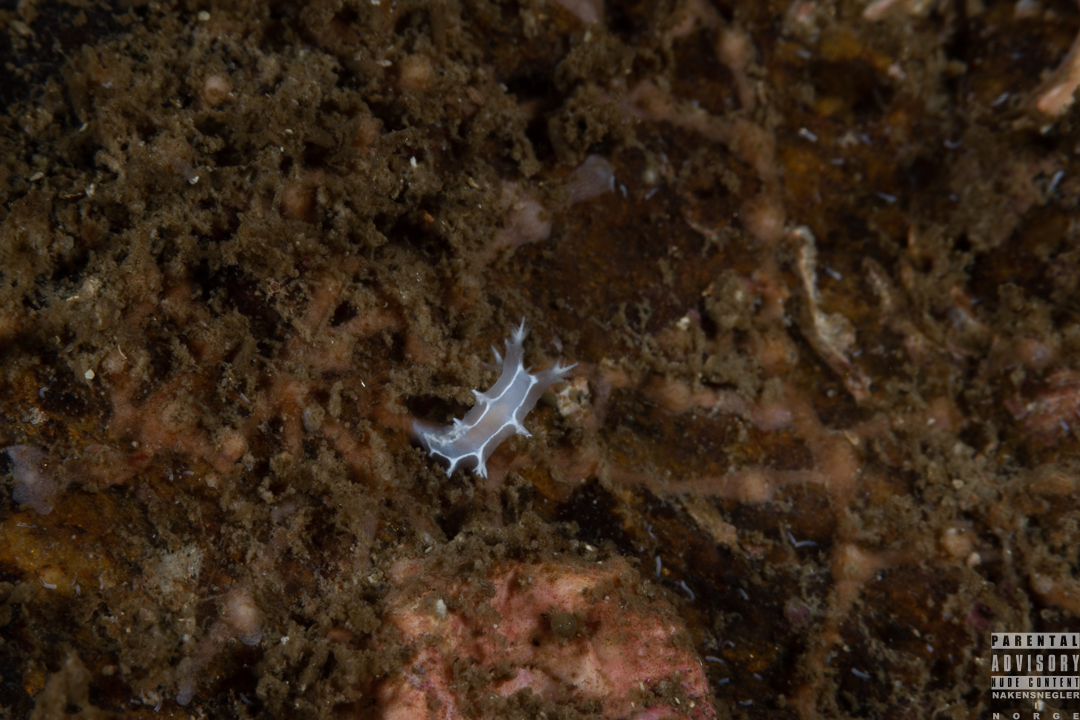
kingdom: Animalia
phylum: Mollusca
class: Gastropoda
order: Nudibranchia
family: Tritoniidae
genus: Duvaucelia
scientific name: Duvaucelia lineata
